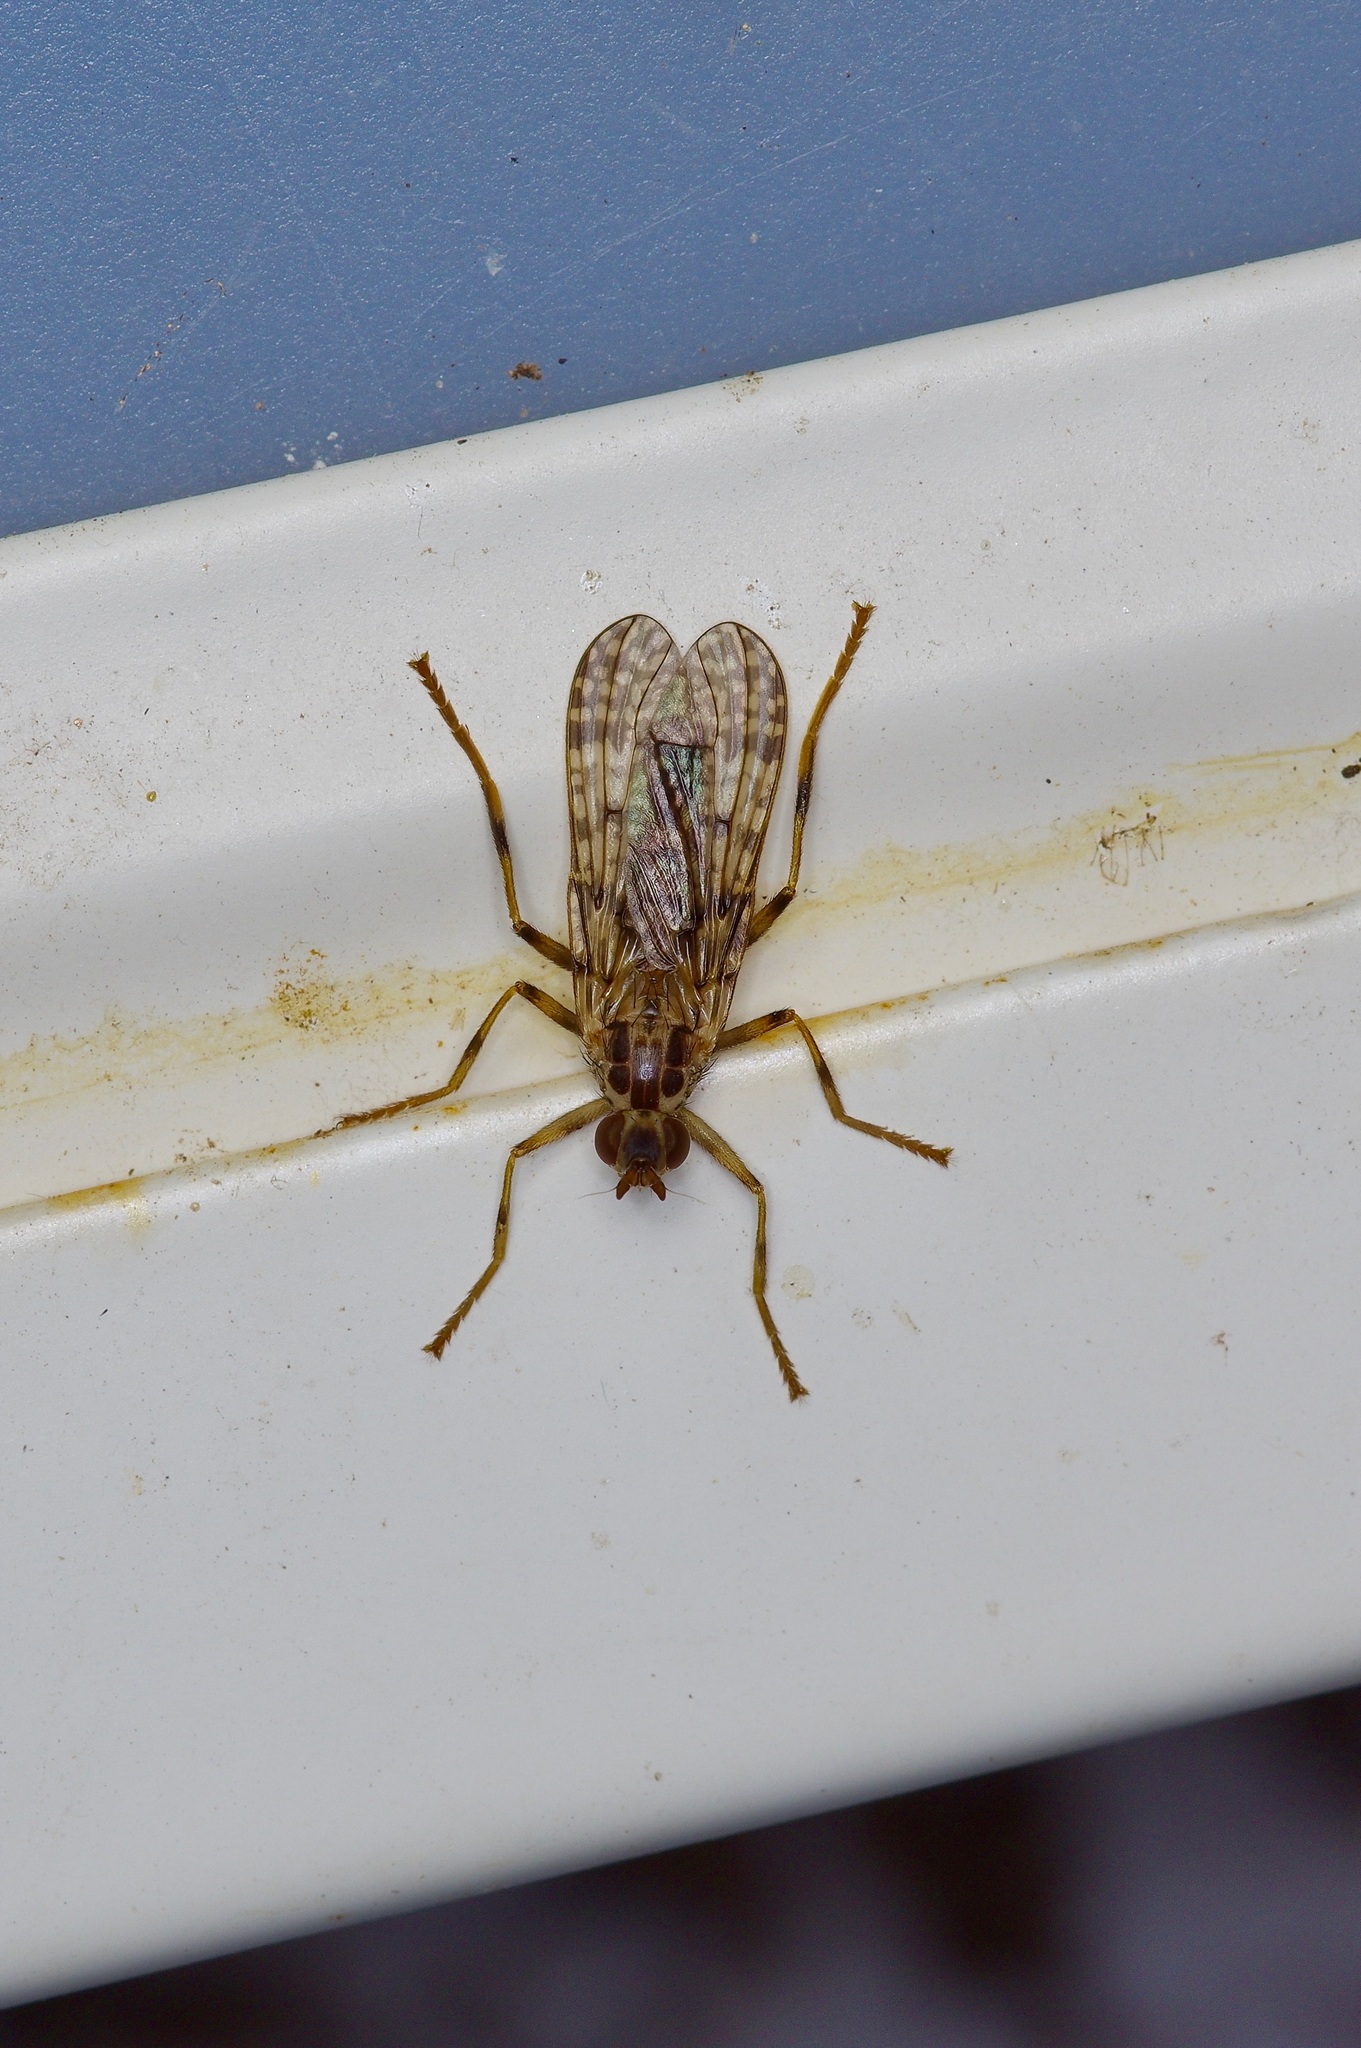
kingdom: Animalia
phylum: Arthropoda
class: Insecta
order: Diptera
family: Pyrgotidae
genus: Boreothrinax
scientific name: Boreothrinax
